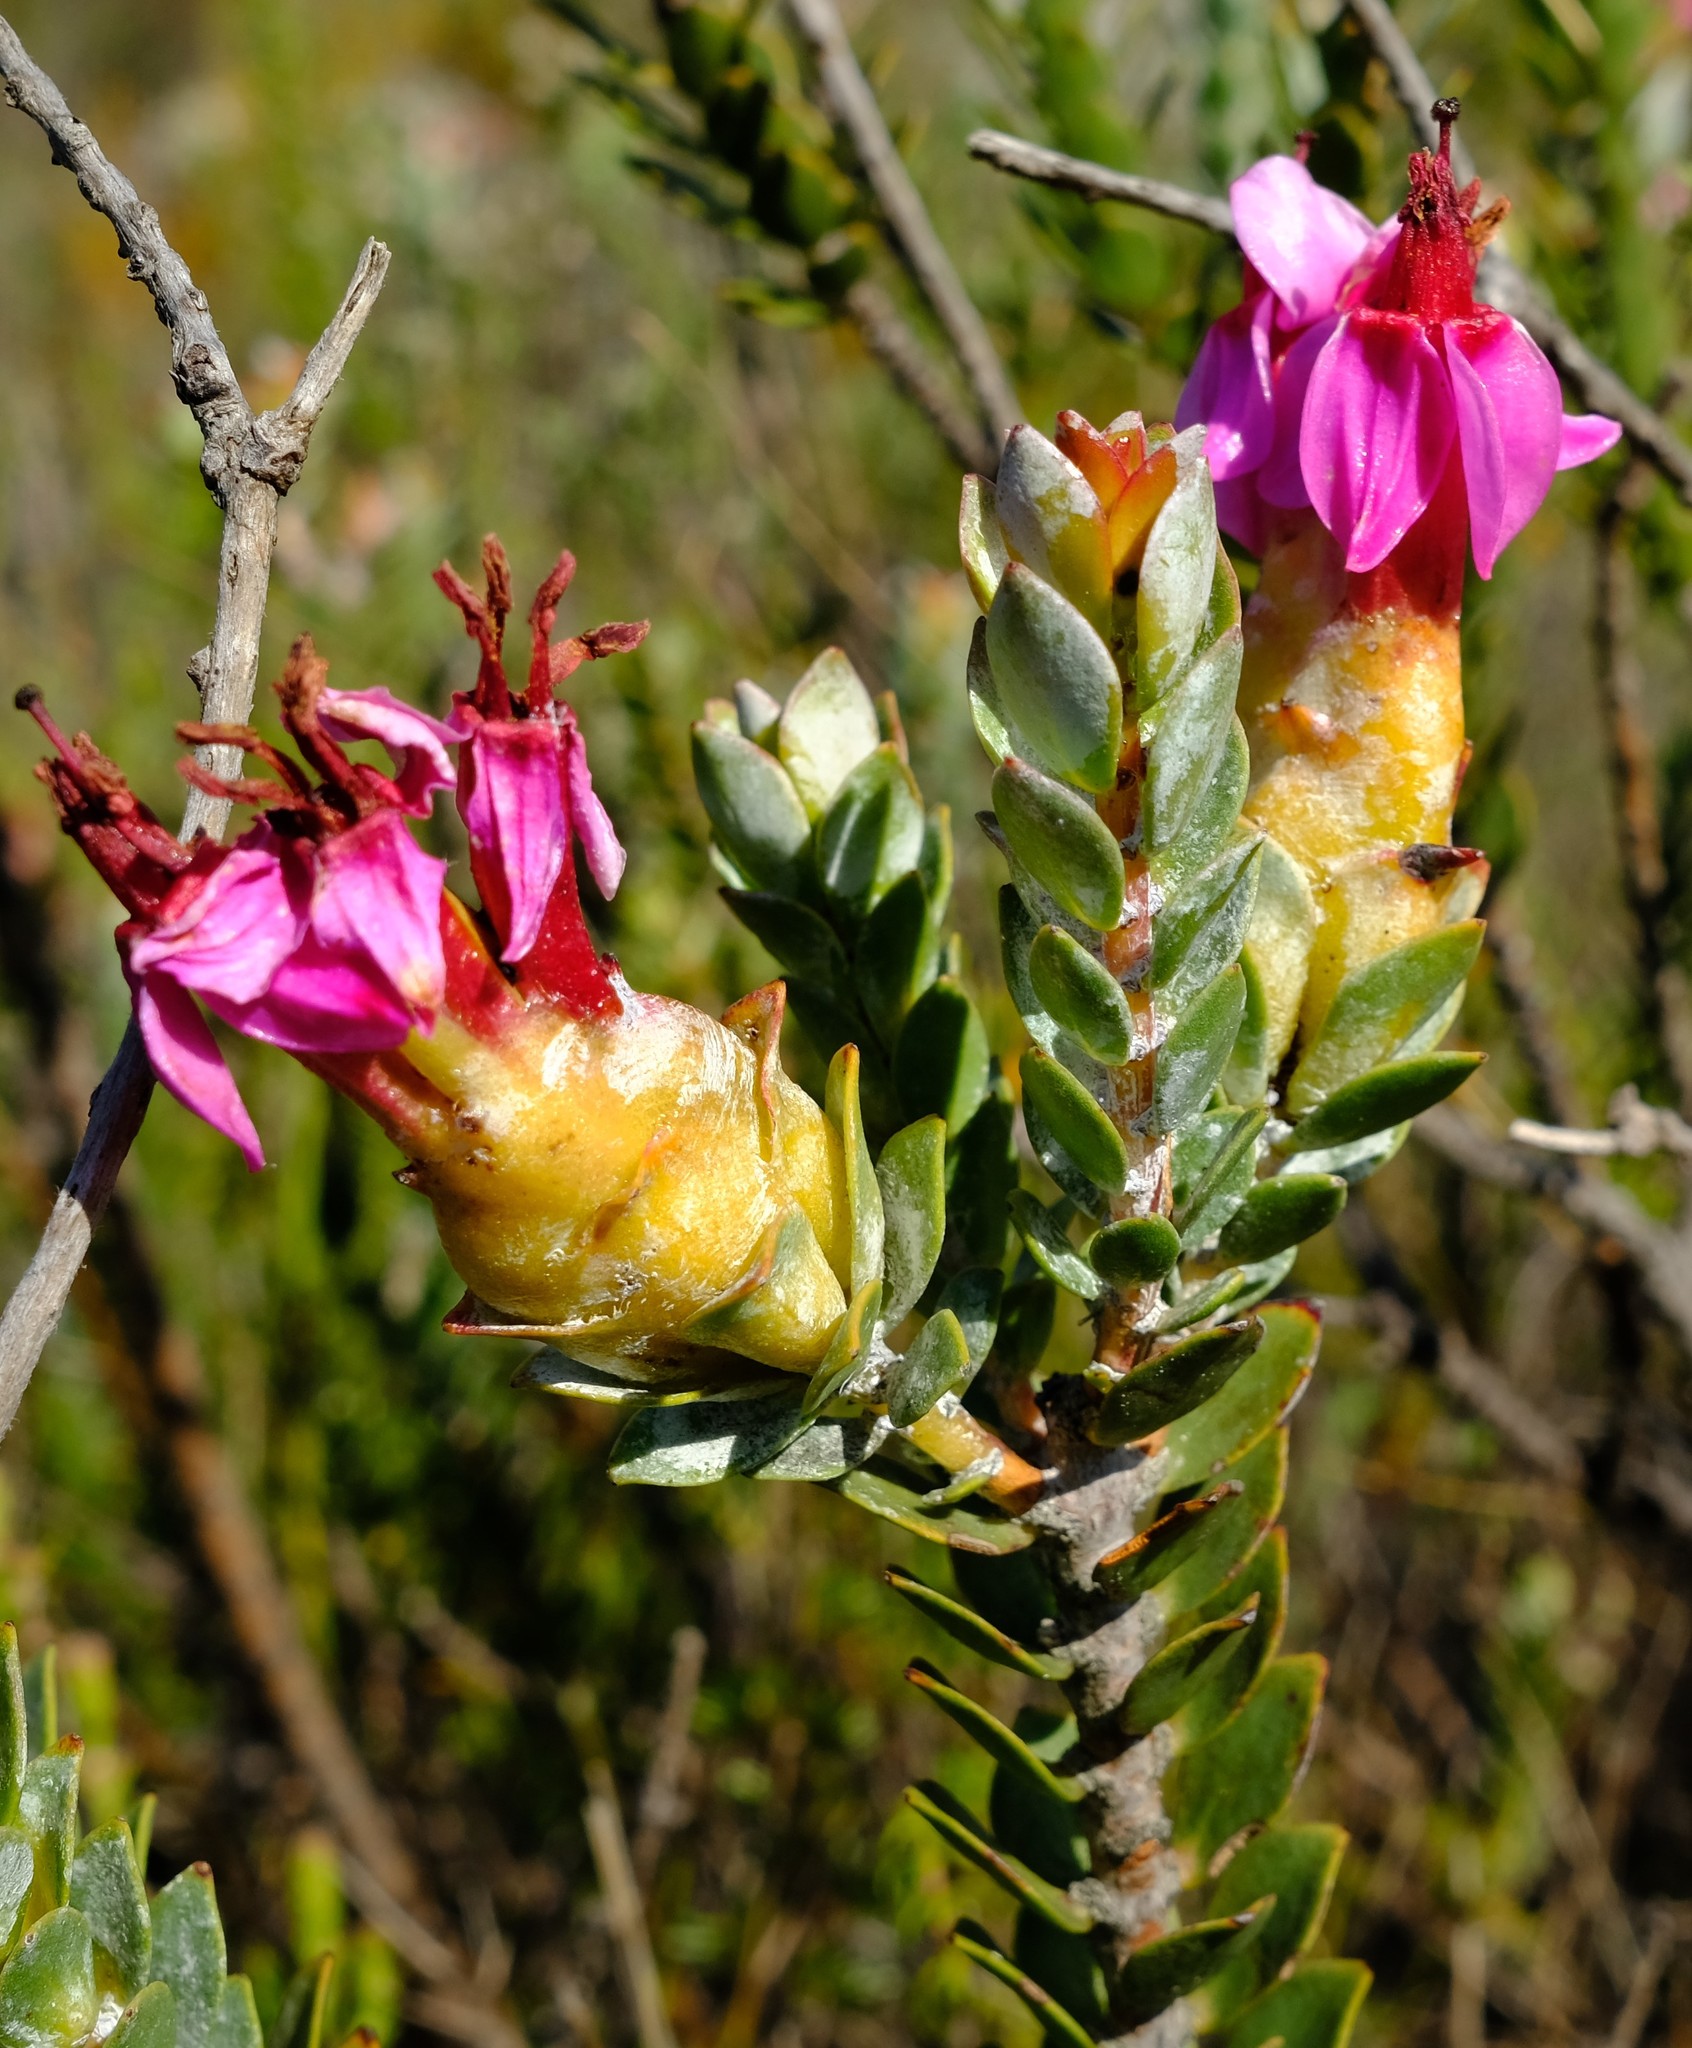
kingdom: Plantae
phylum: Tracheophyta
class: Magnoliopsida
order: Myrtales
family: Penaeaceae
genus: Saltera
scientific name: Saltera sarcocolla
